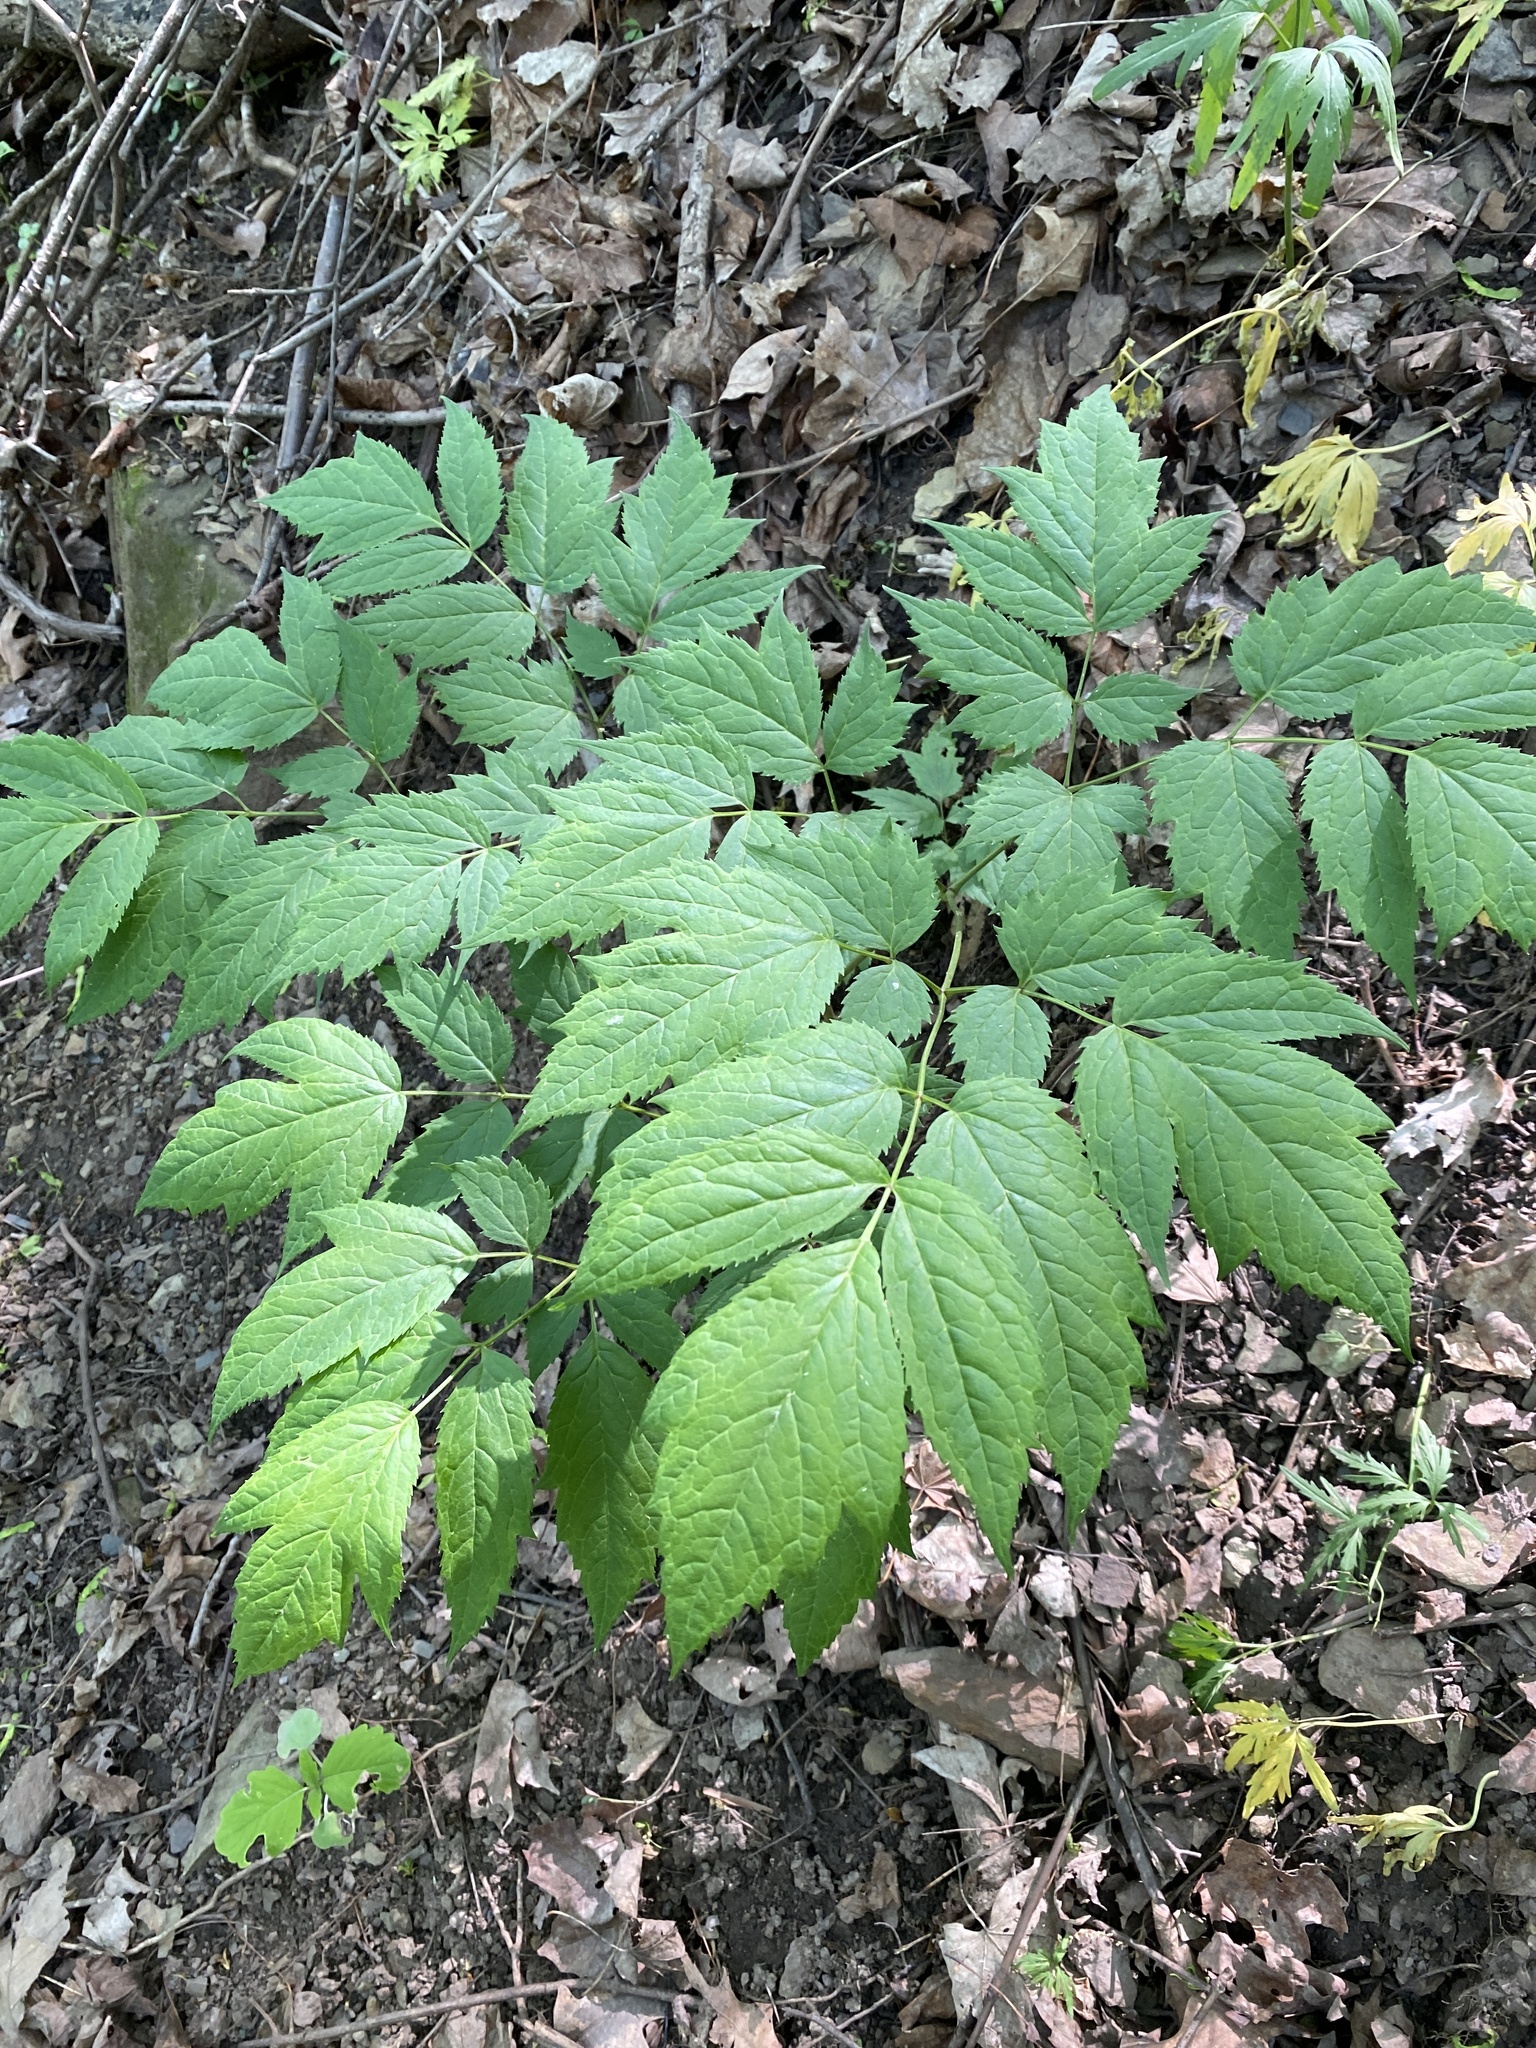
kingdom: Plantae
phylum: Tracheophyta
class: Magnoliopsida
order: Ranunculales
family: Ranunculaceae
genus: Actaea
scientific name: Actaea racemosa
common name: Black cohosh
